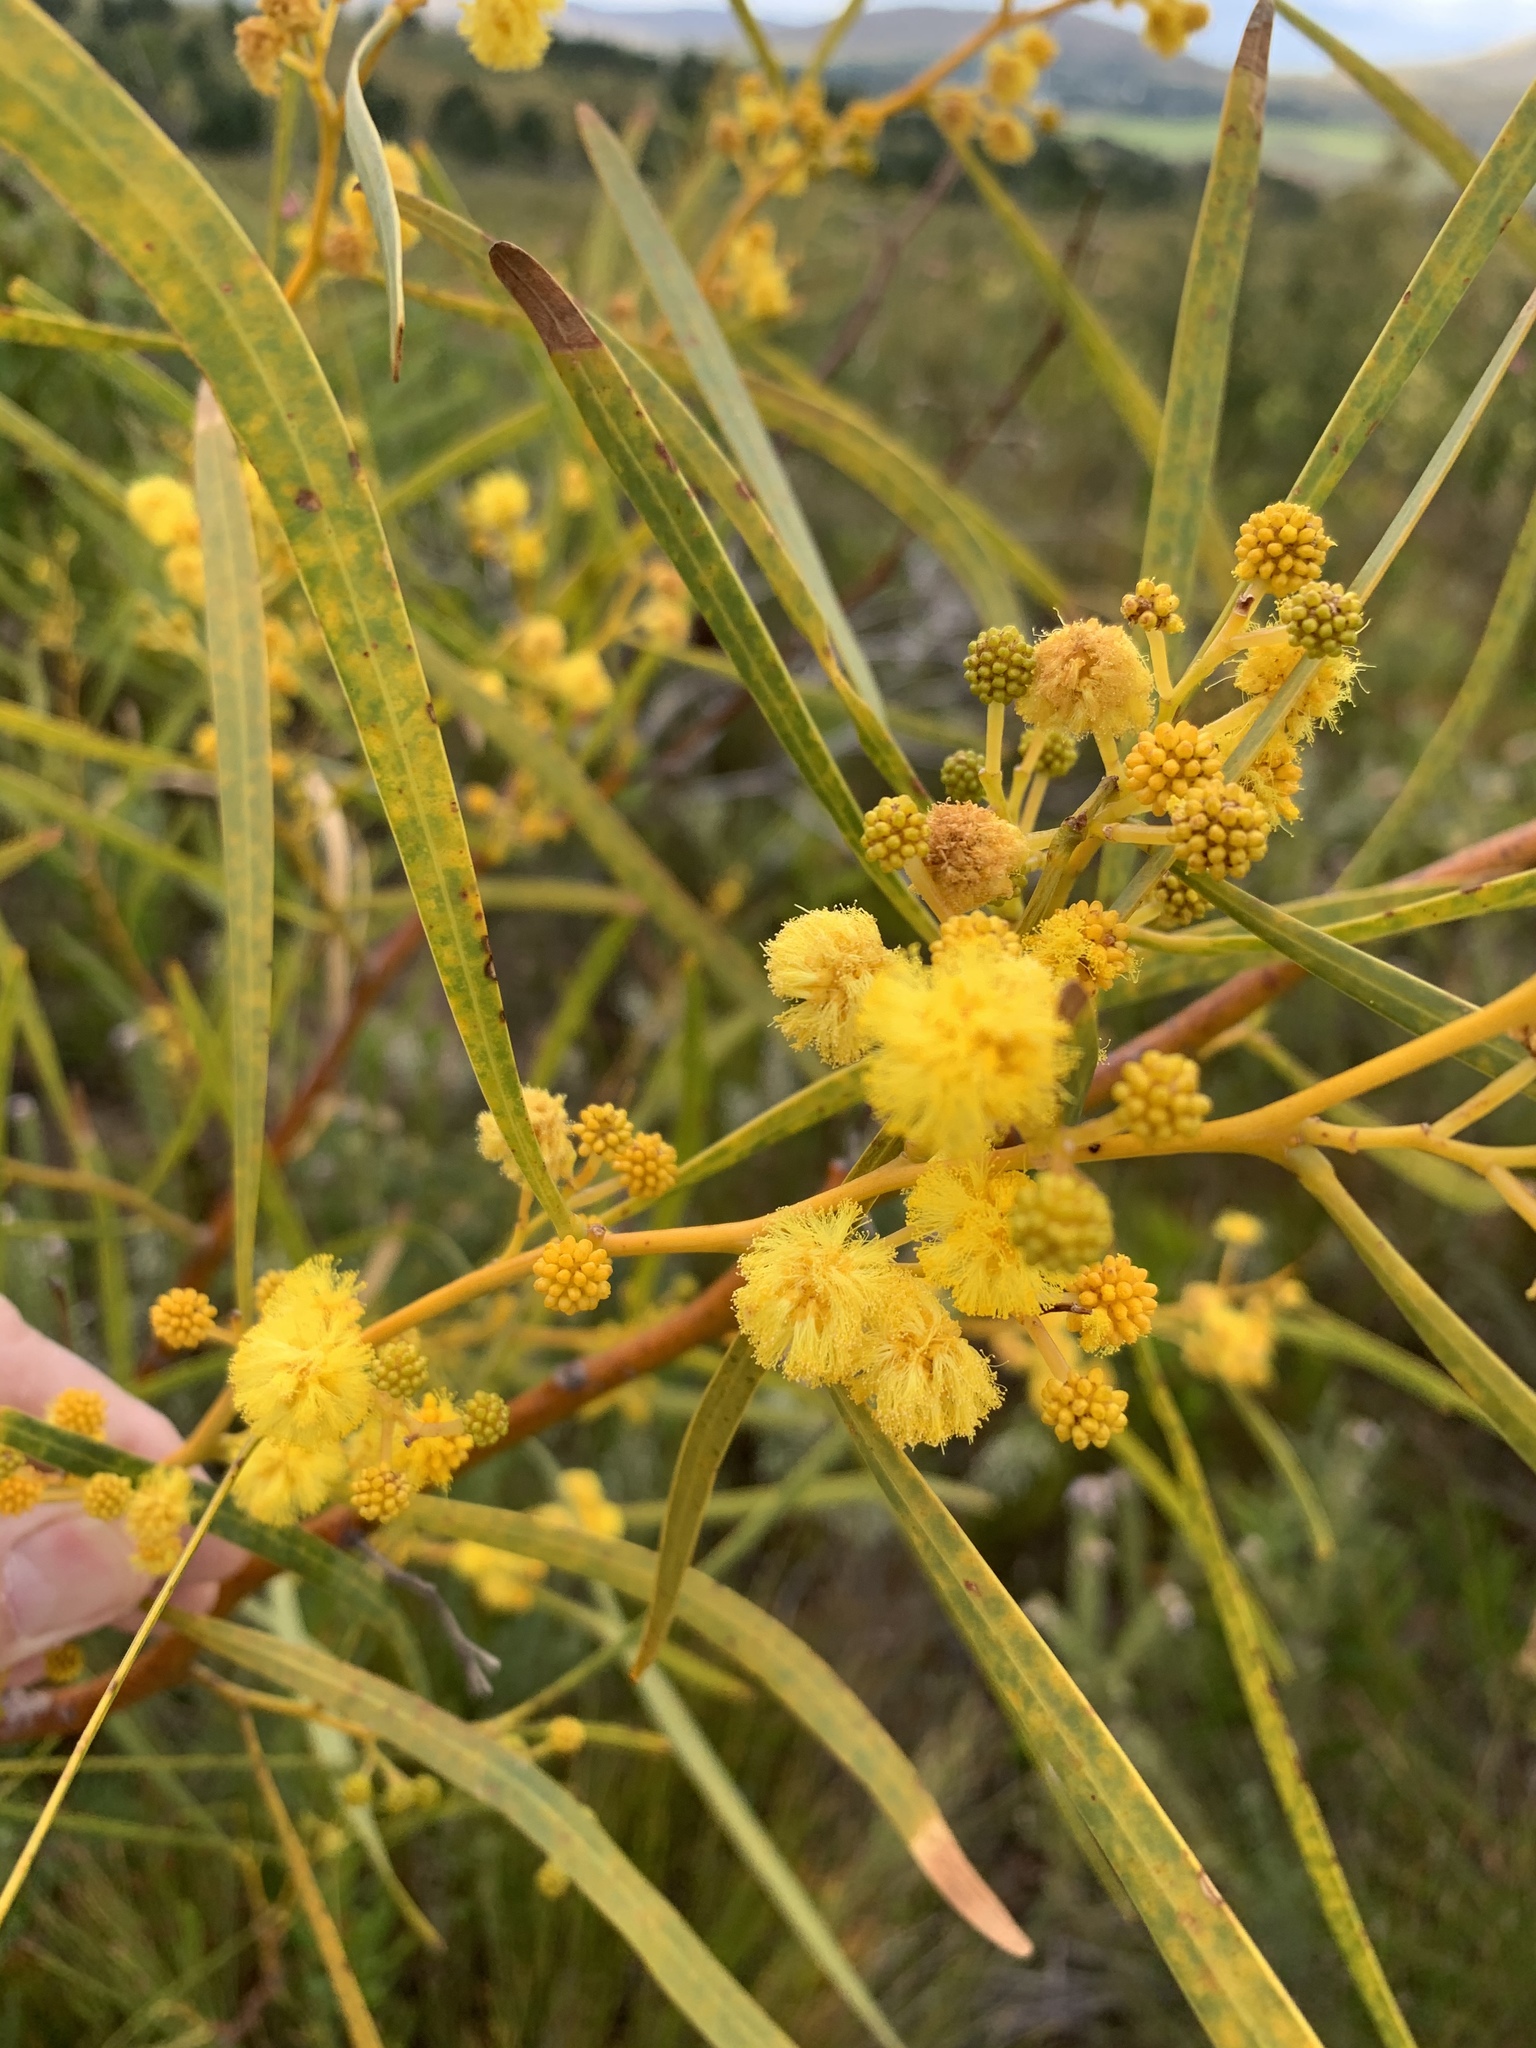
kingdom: Plantae
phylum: Tracheophyta
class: Magnoliopsida
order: Fabales
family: Fabaceae
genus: Acacia
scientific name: Acacia saligna
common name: Orange wattle
